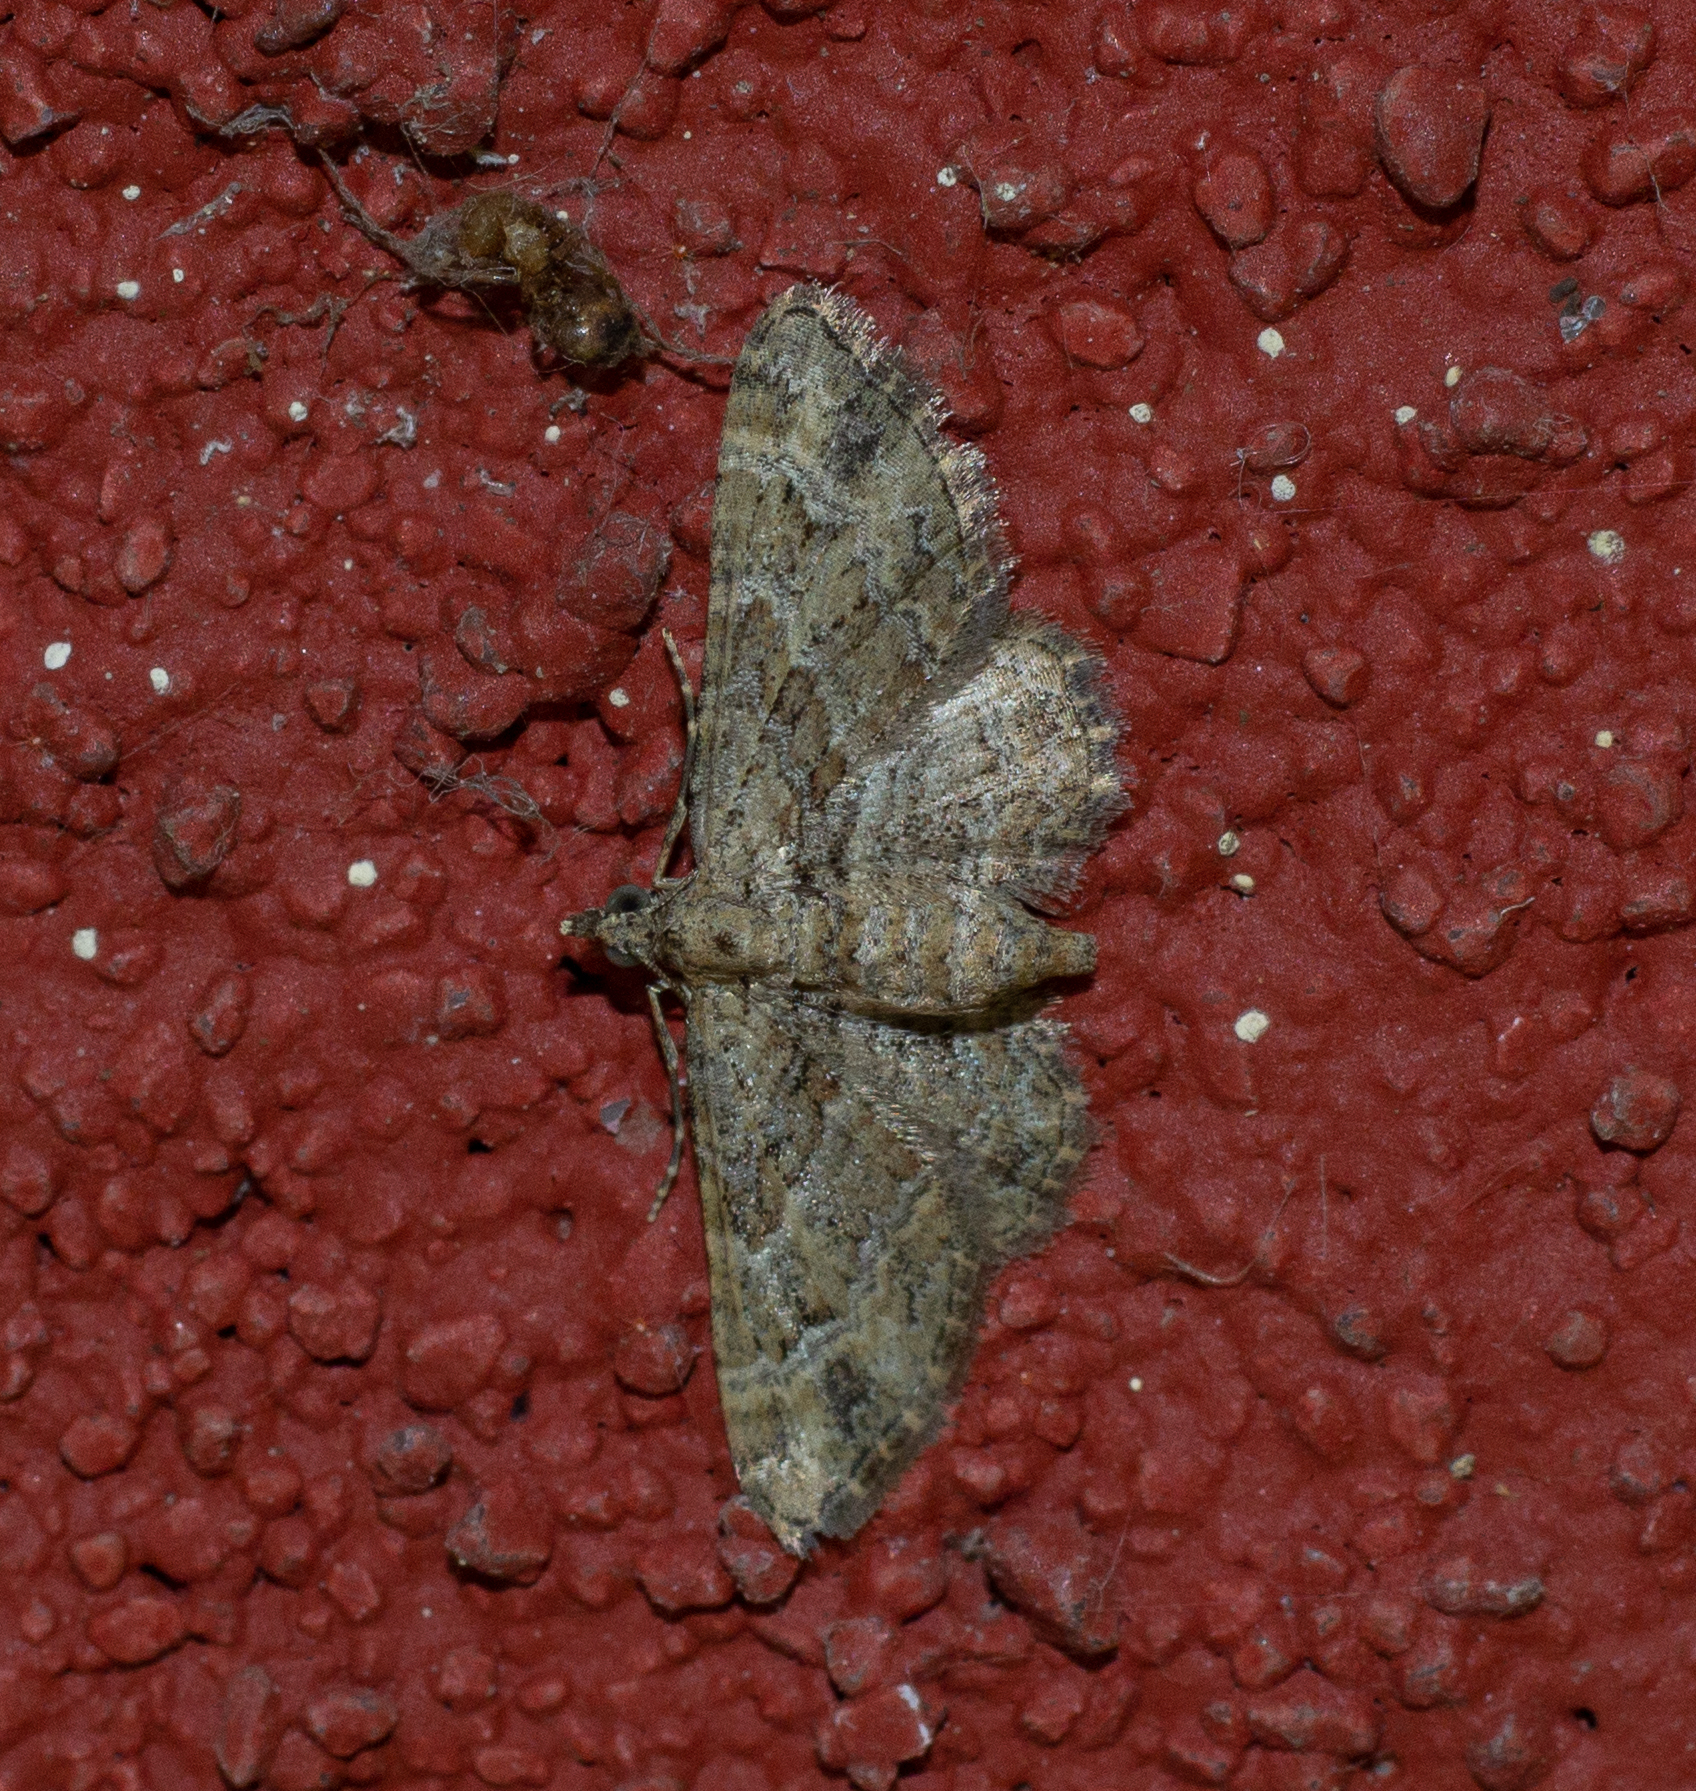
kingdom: Animalia
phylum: Arthropoda
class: Insecta
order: Lepidoptera
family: Geometridae
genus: Gymnoscelis
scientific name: Gymnoscelis rufifasciata
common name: Double-striped pug
